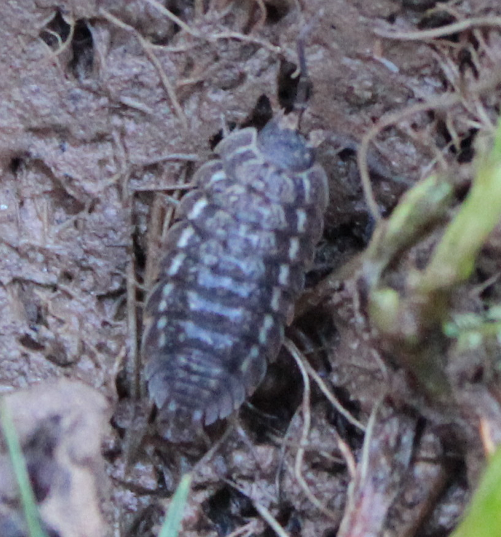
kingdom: Animalia
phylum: Arthropoda
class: Malacostraca
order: Isopoda
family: Trachelipodidae
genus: Trachelipus
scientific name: Trachelipus rathkii
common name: Isopod
